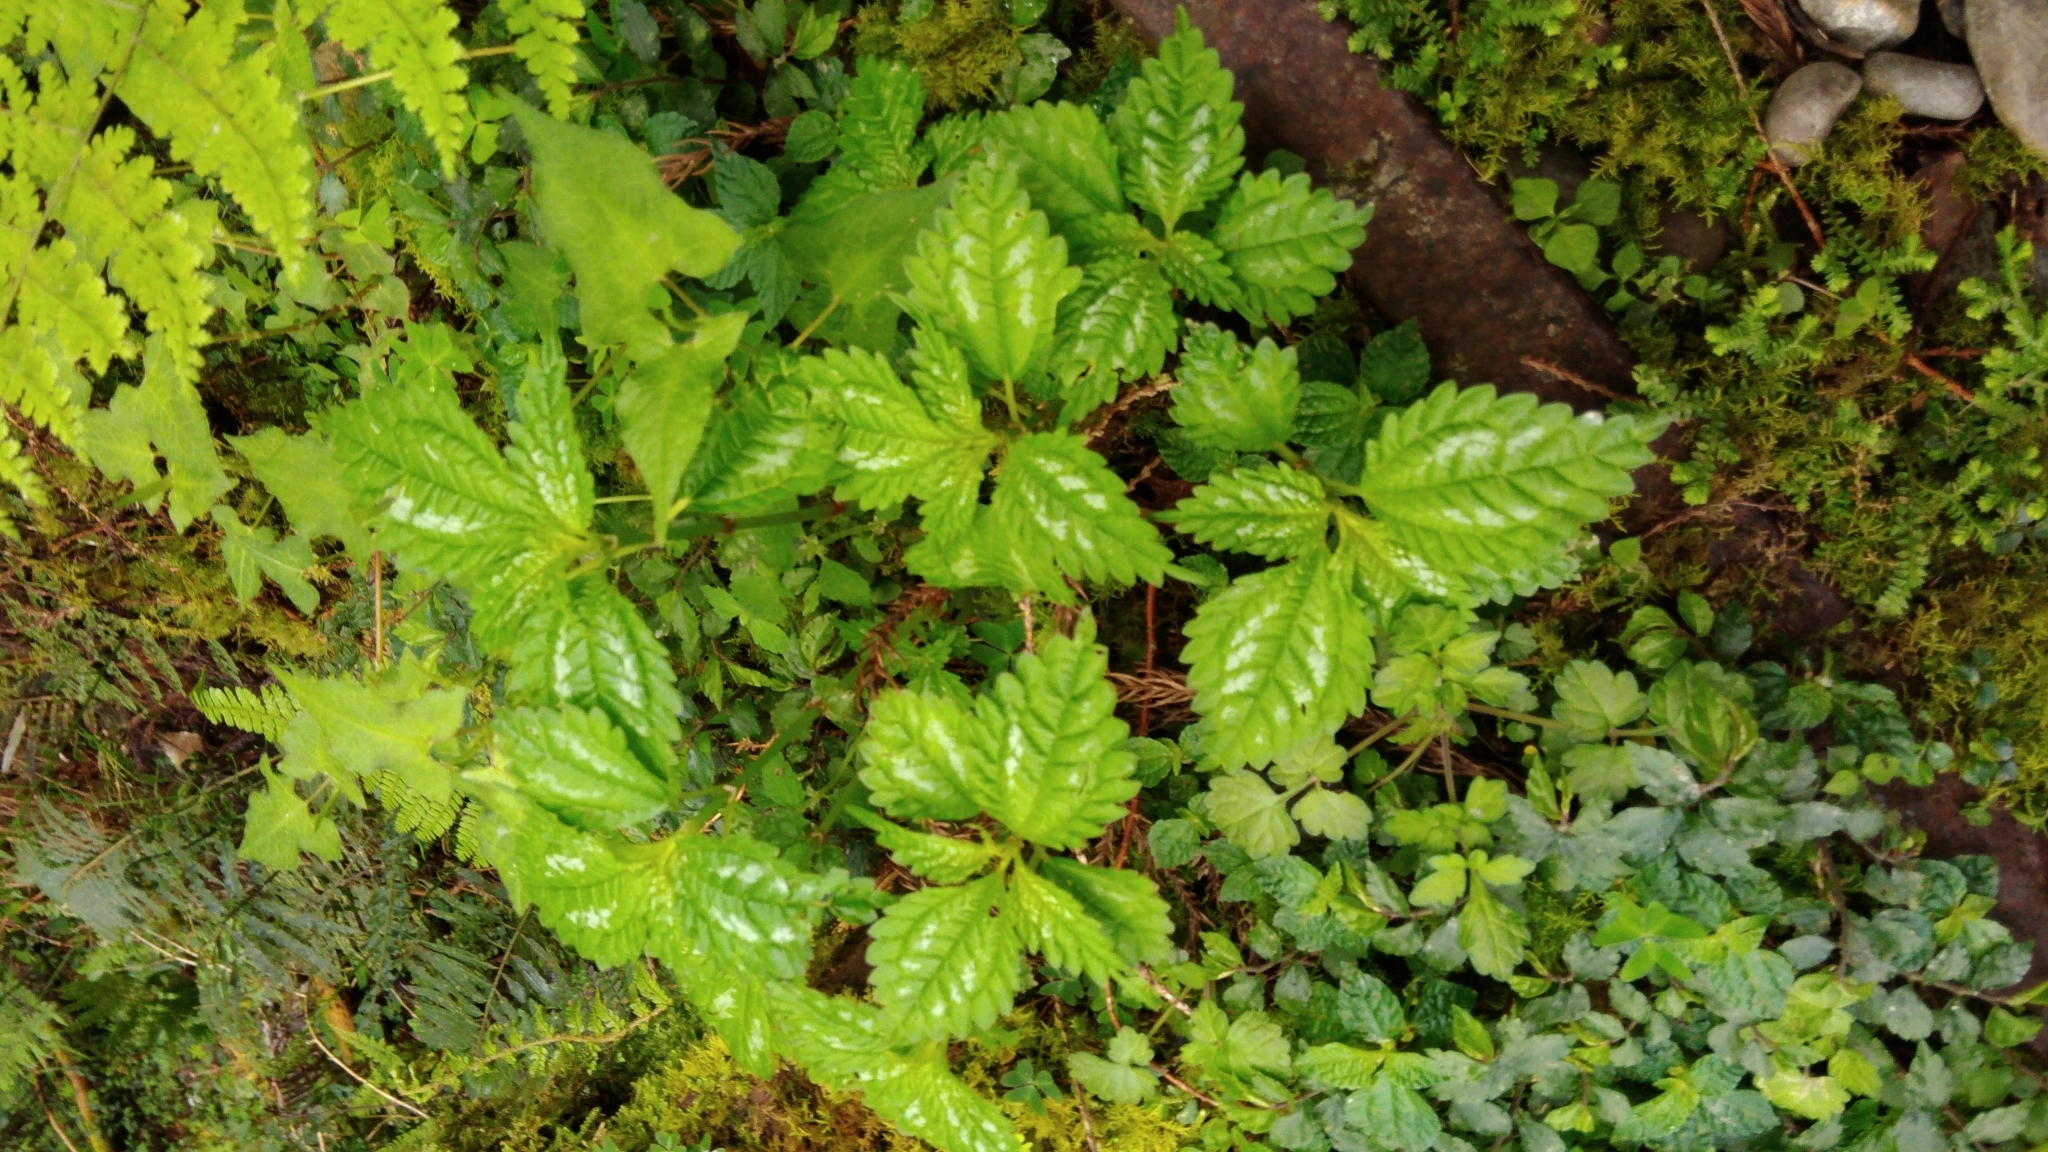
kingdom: Plantae
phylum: Tracheophyta
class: Magnoliopsida
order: Rosales
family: Urticaceae
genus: Pilea
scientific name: Pilea matsudae
